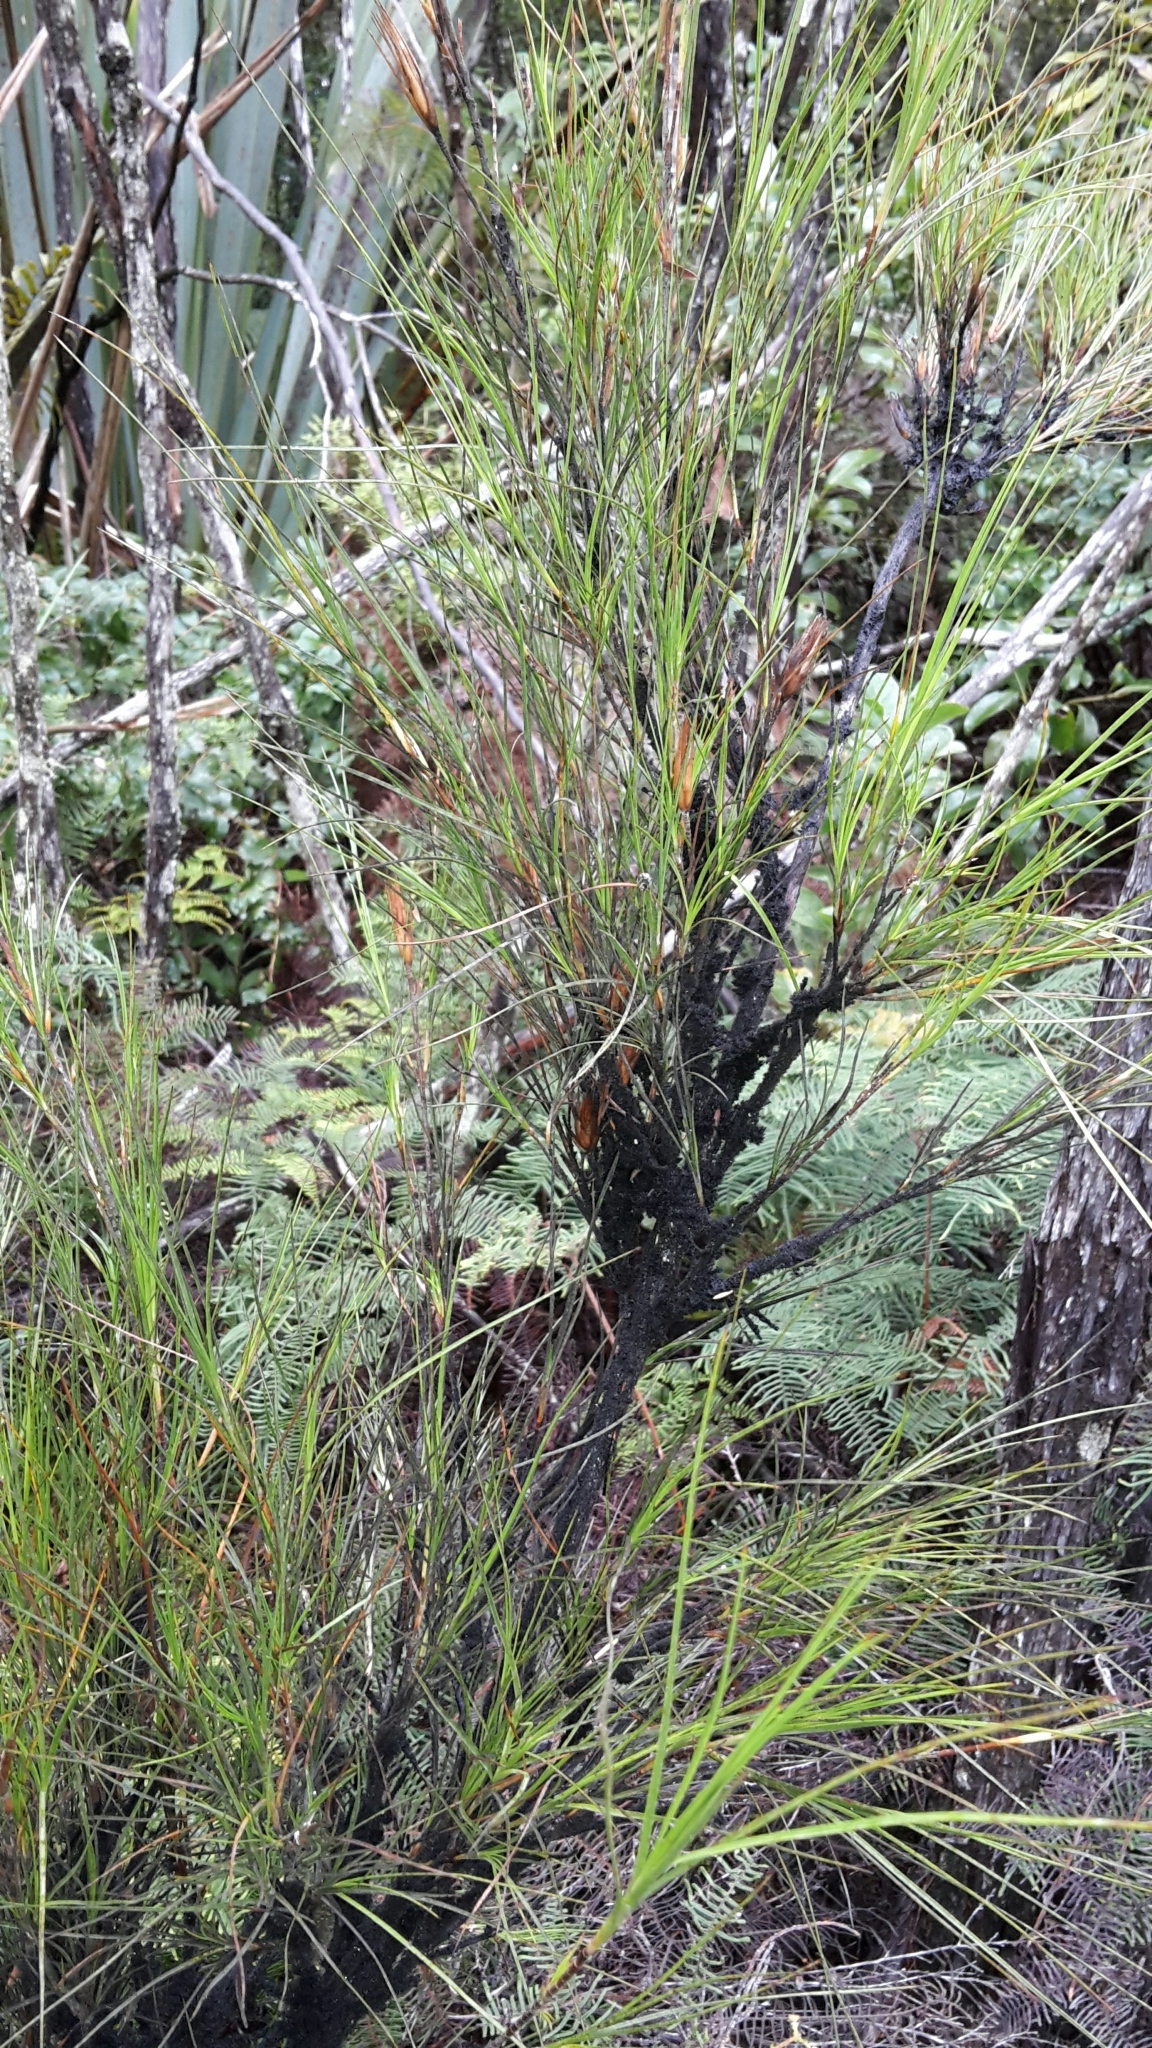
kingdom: Plantae
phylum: Tracheophyta
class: Magnoliopsida
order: Ericales
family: Ericaceae
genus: Dracophyllum
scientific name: Dracophyllum lessonianum
